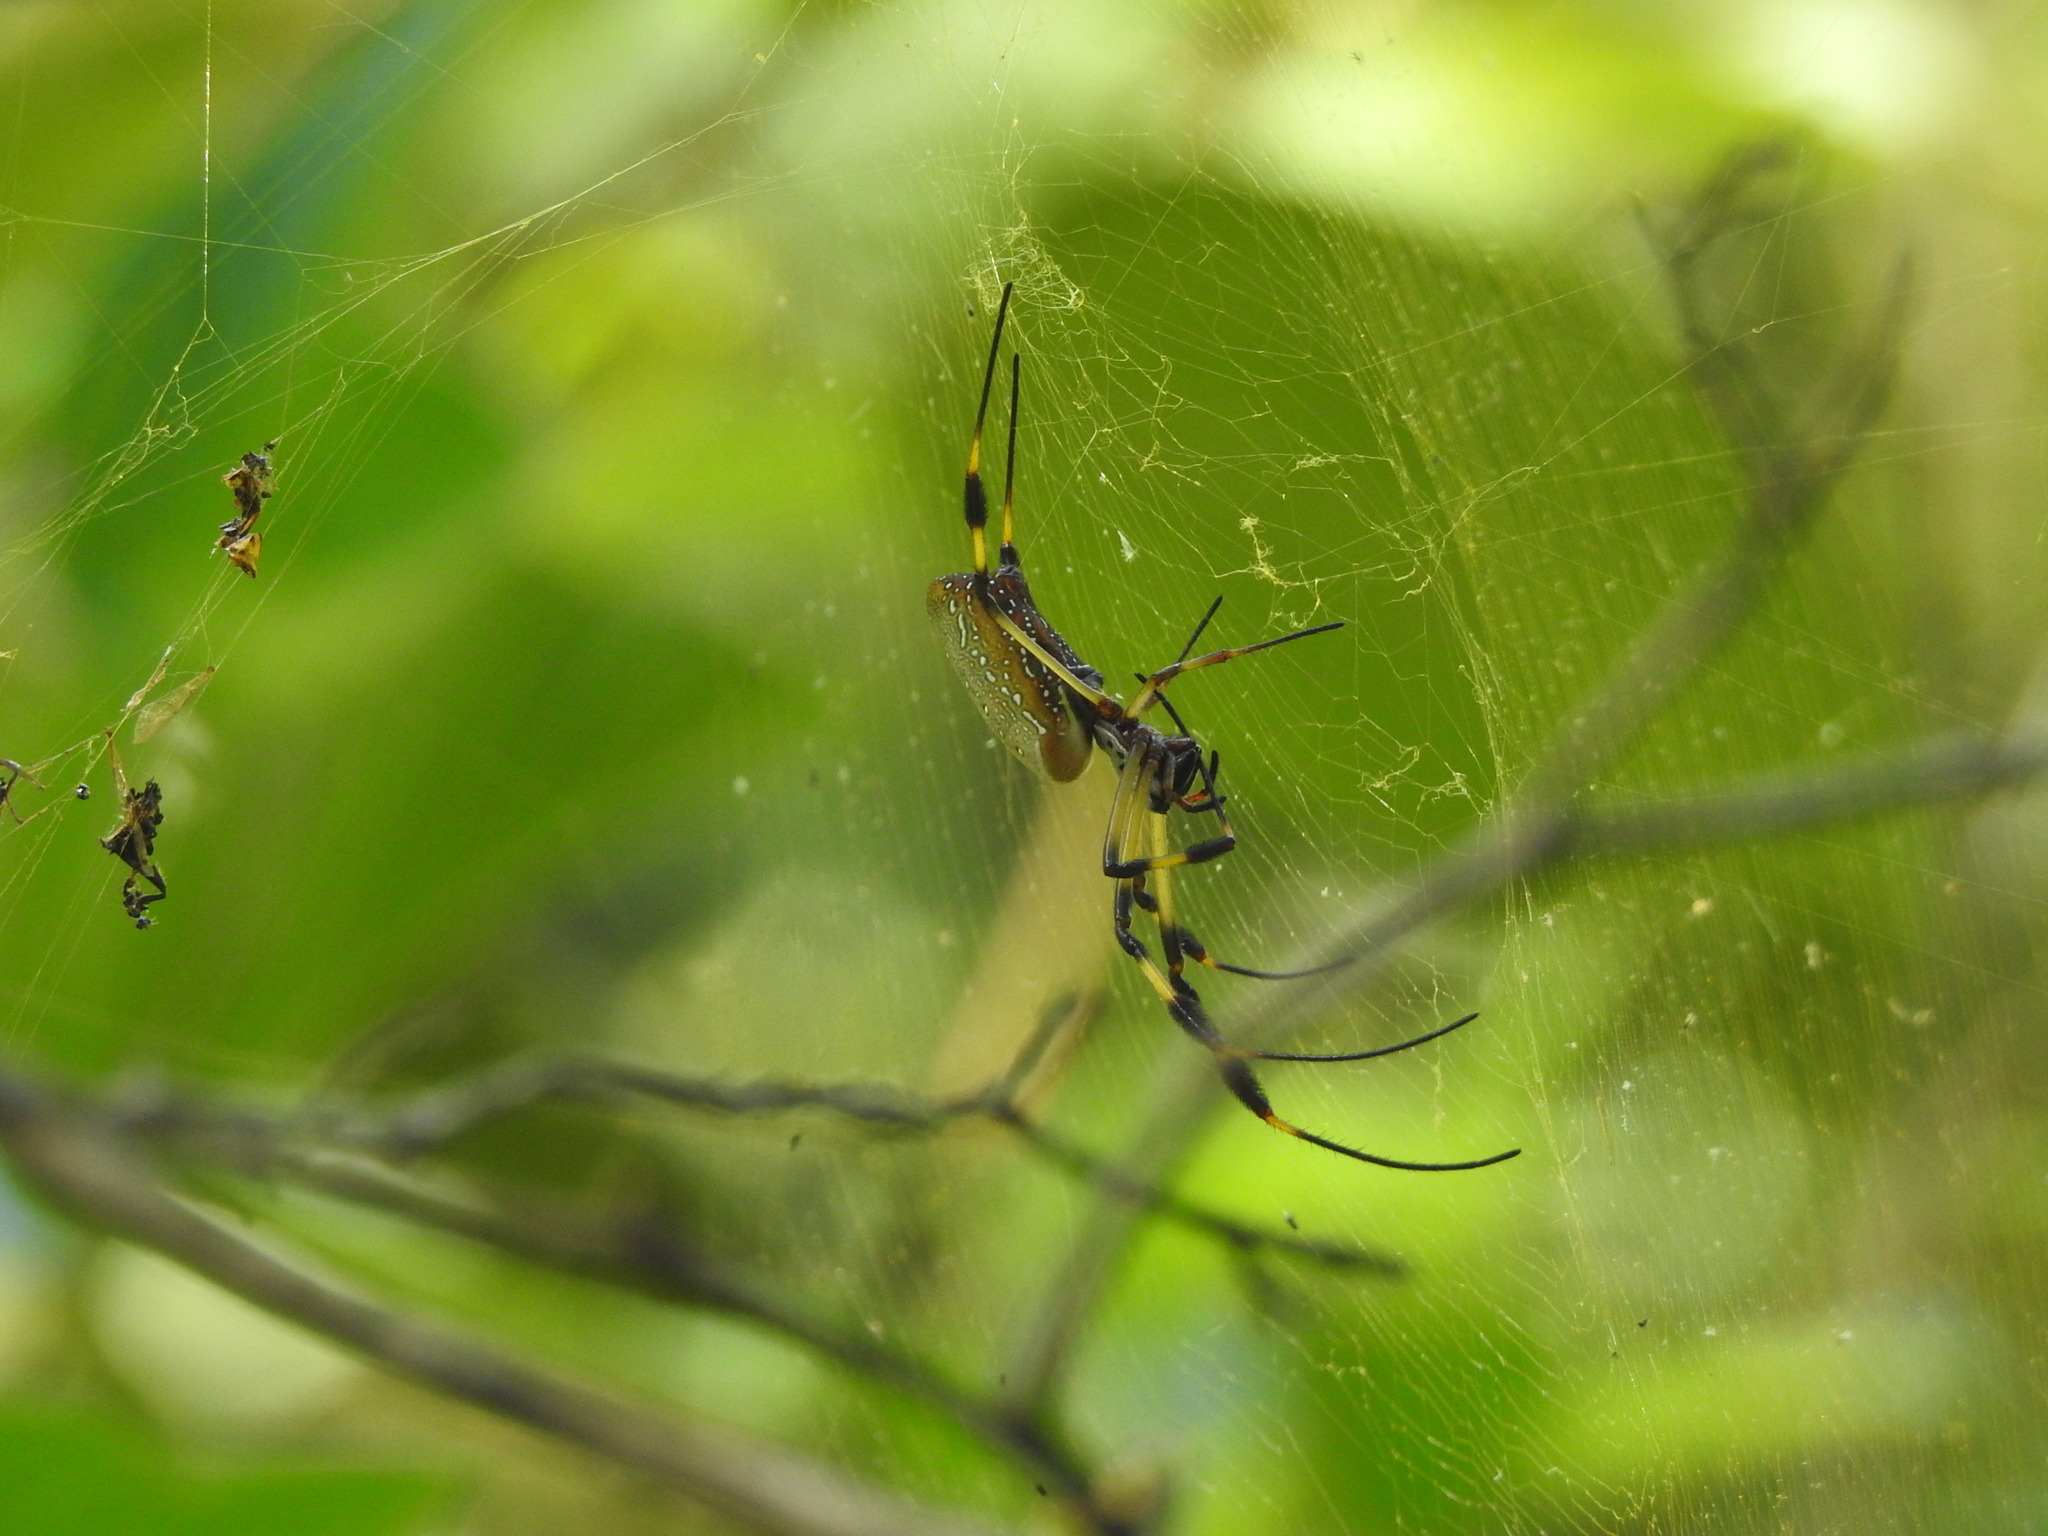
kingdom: Animalia
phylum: Arthropoda
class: Arachnida
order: Araneae
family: Araneidae
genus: Trichonephila
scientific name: Trichonephila clavipes
